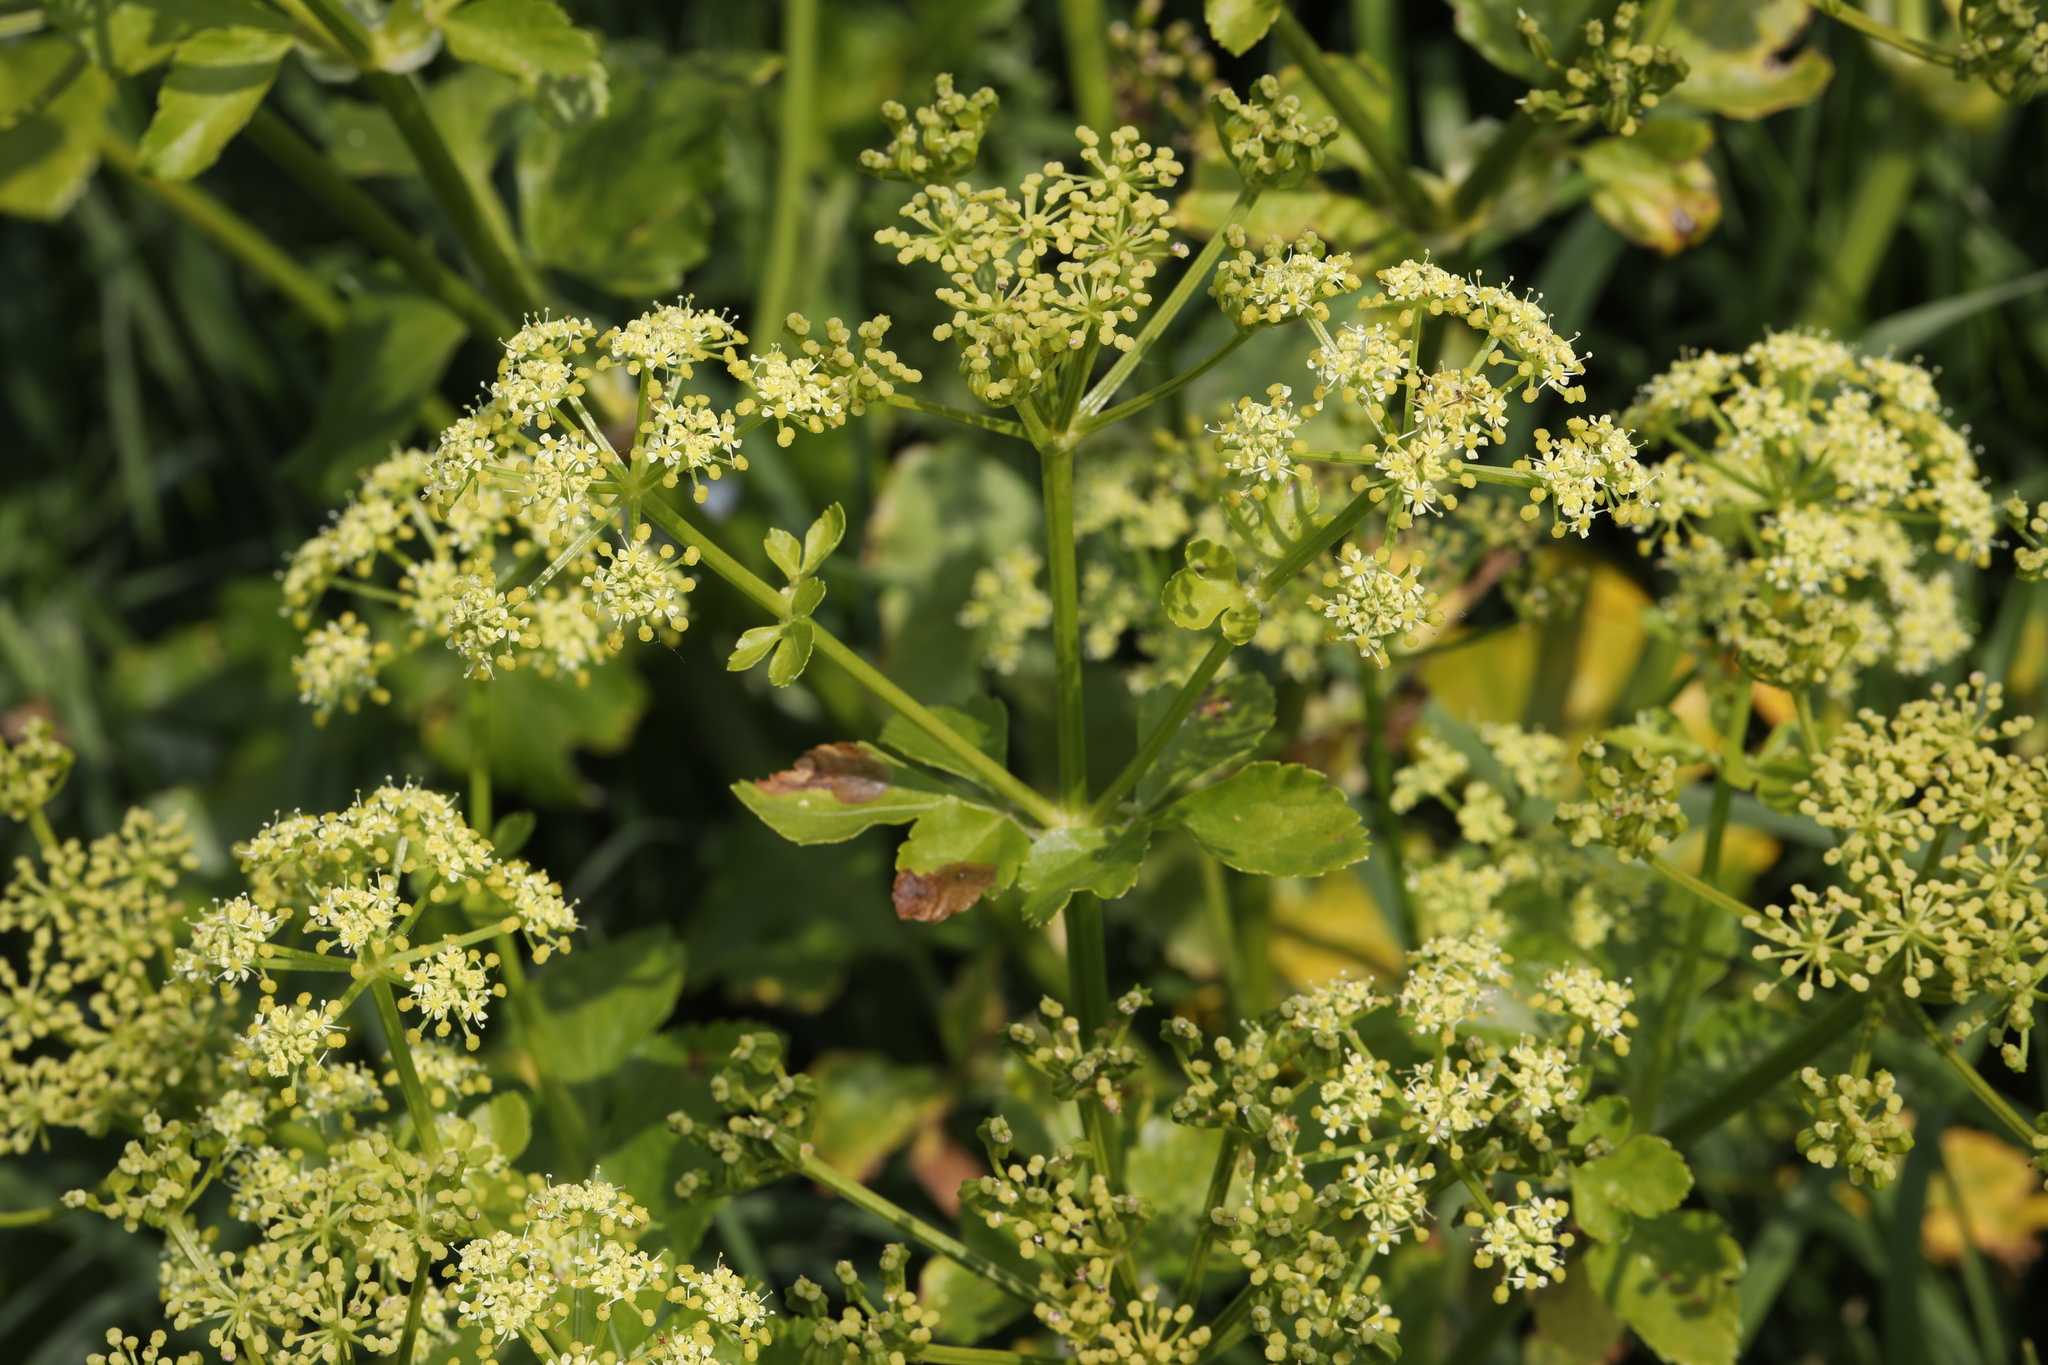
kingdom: Plantae
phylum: Tracheophyta
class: Magnoliopsida
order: Apiales
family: Apiaceae
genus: Smyrnium
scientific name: Smyrnium olusatrum
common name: Alexanders
